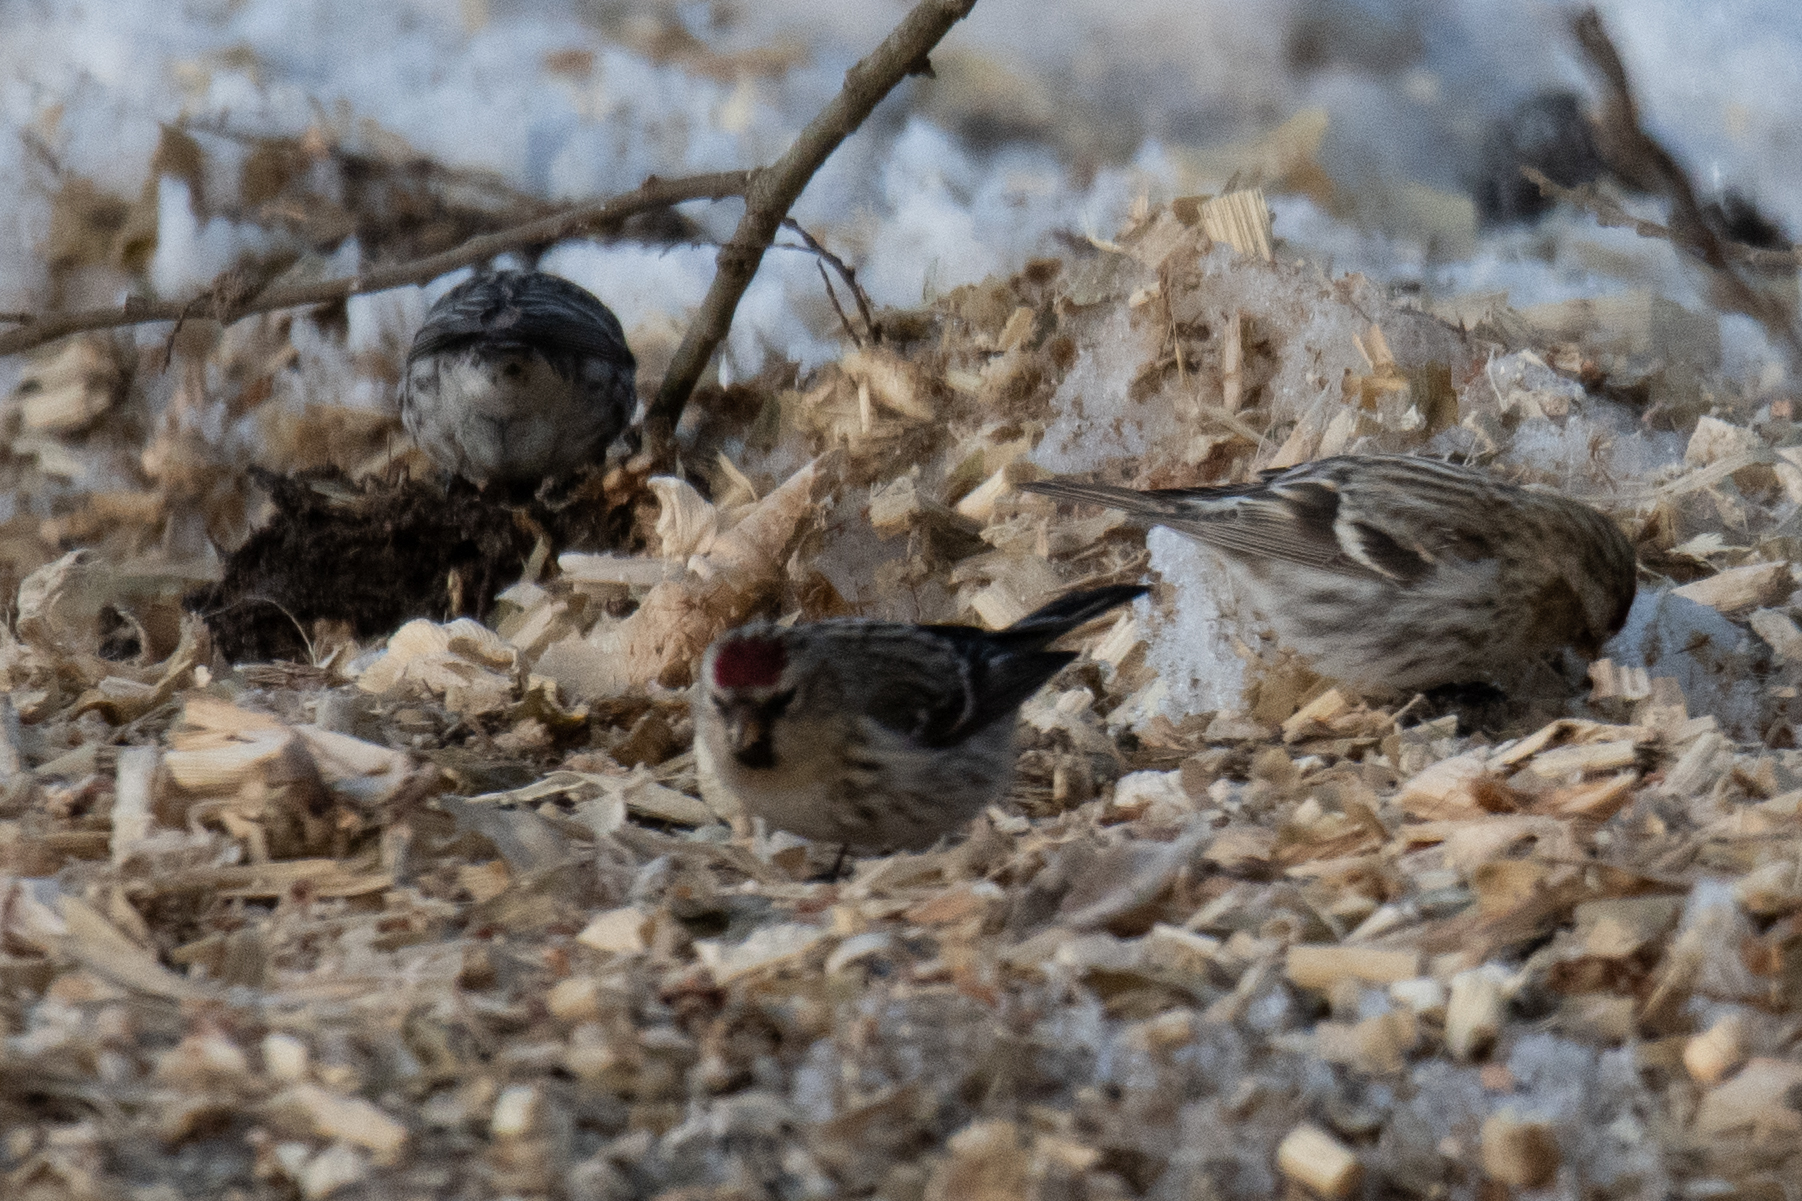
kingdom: Animalia
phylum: Chordata
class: Aves
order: Passeriformes
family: Fringillidae
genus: Acanthis
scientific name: Acanthis flammea
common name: Common redpoll
